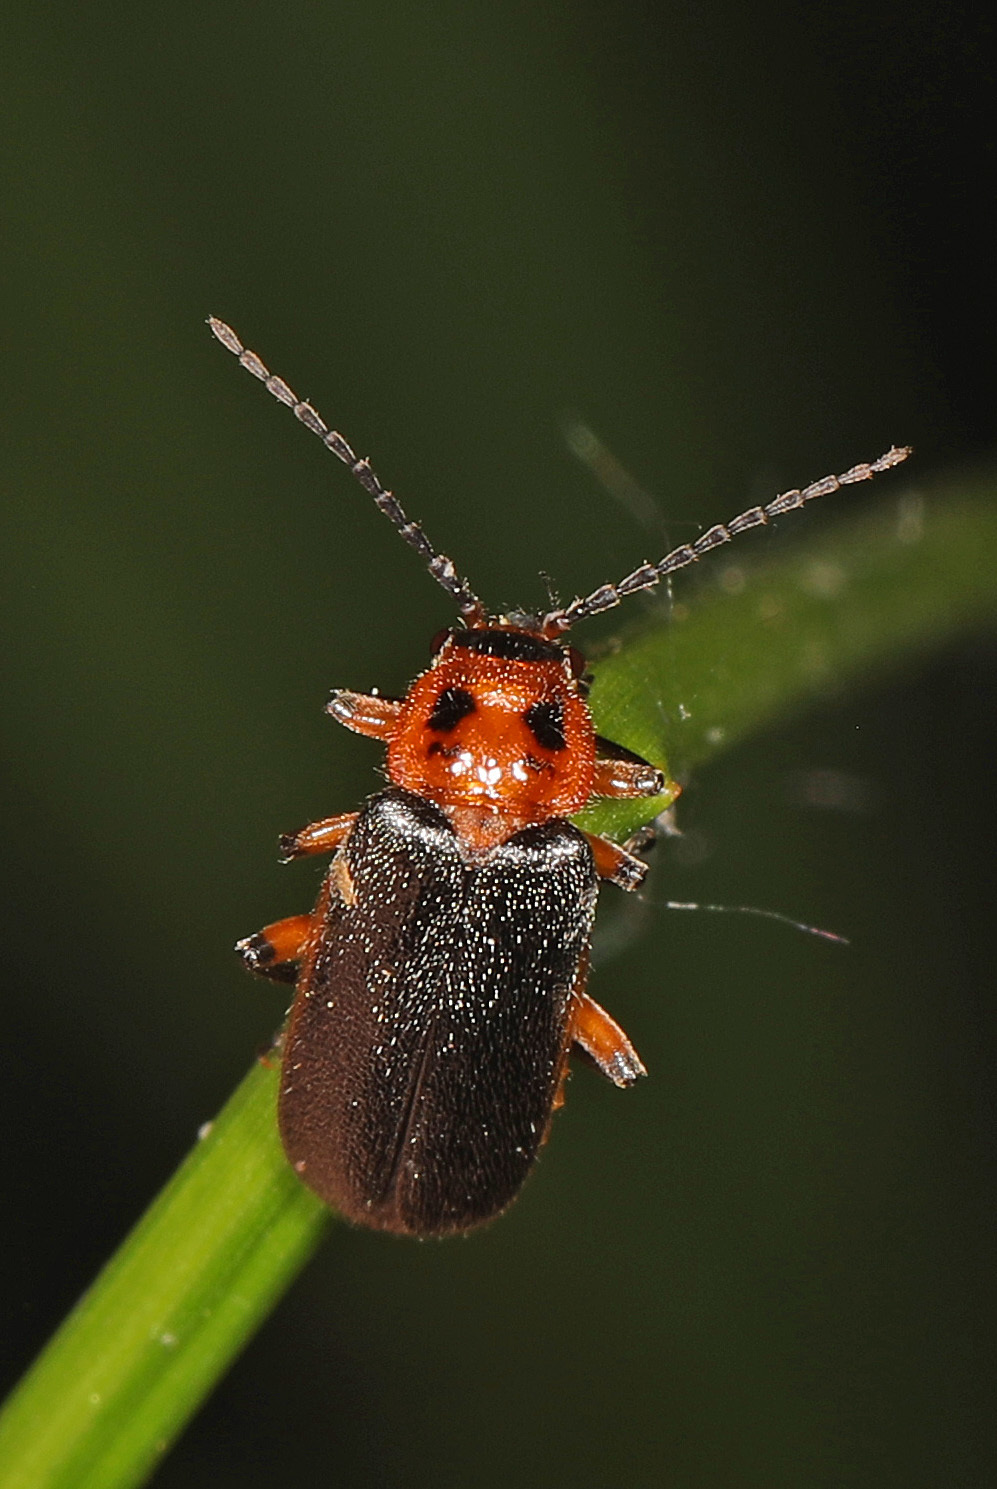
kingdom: Animalia
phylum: Arthropoda
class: Insecta
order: Coleoptera
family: Cantharidae
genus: Atalantycha
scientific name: Atalantycha bilineata
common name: Two-lined leatherwing
